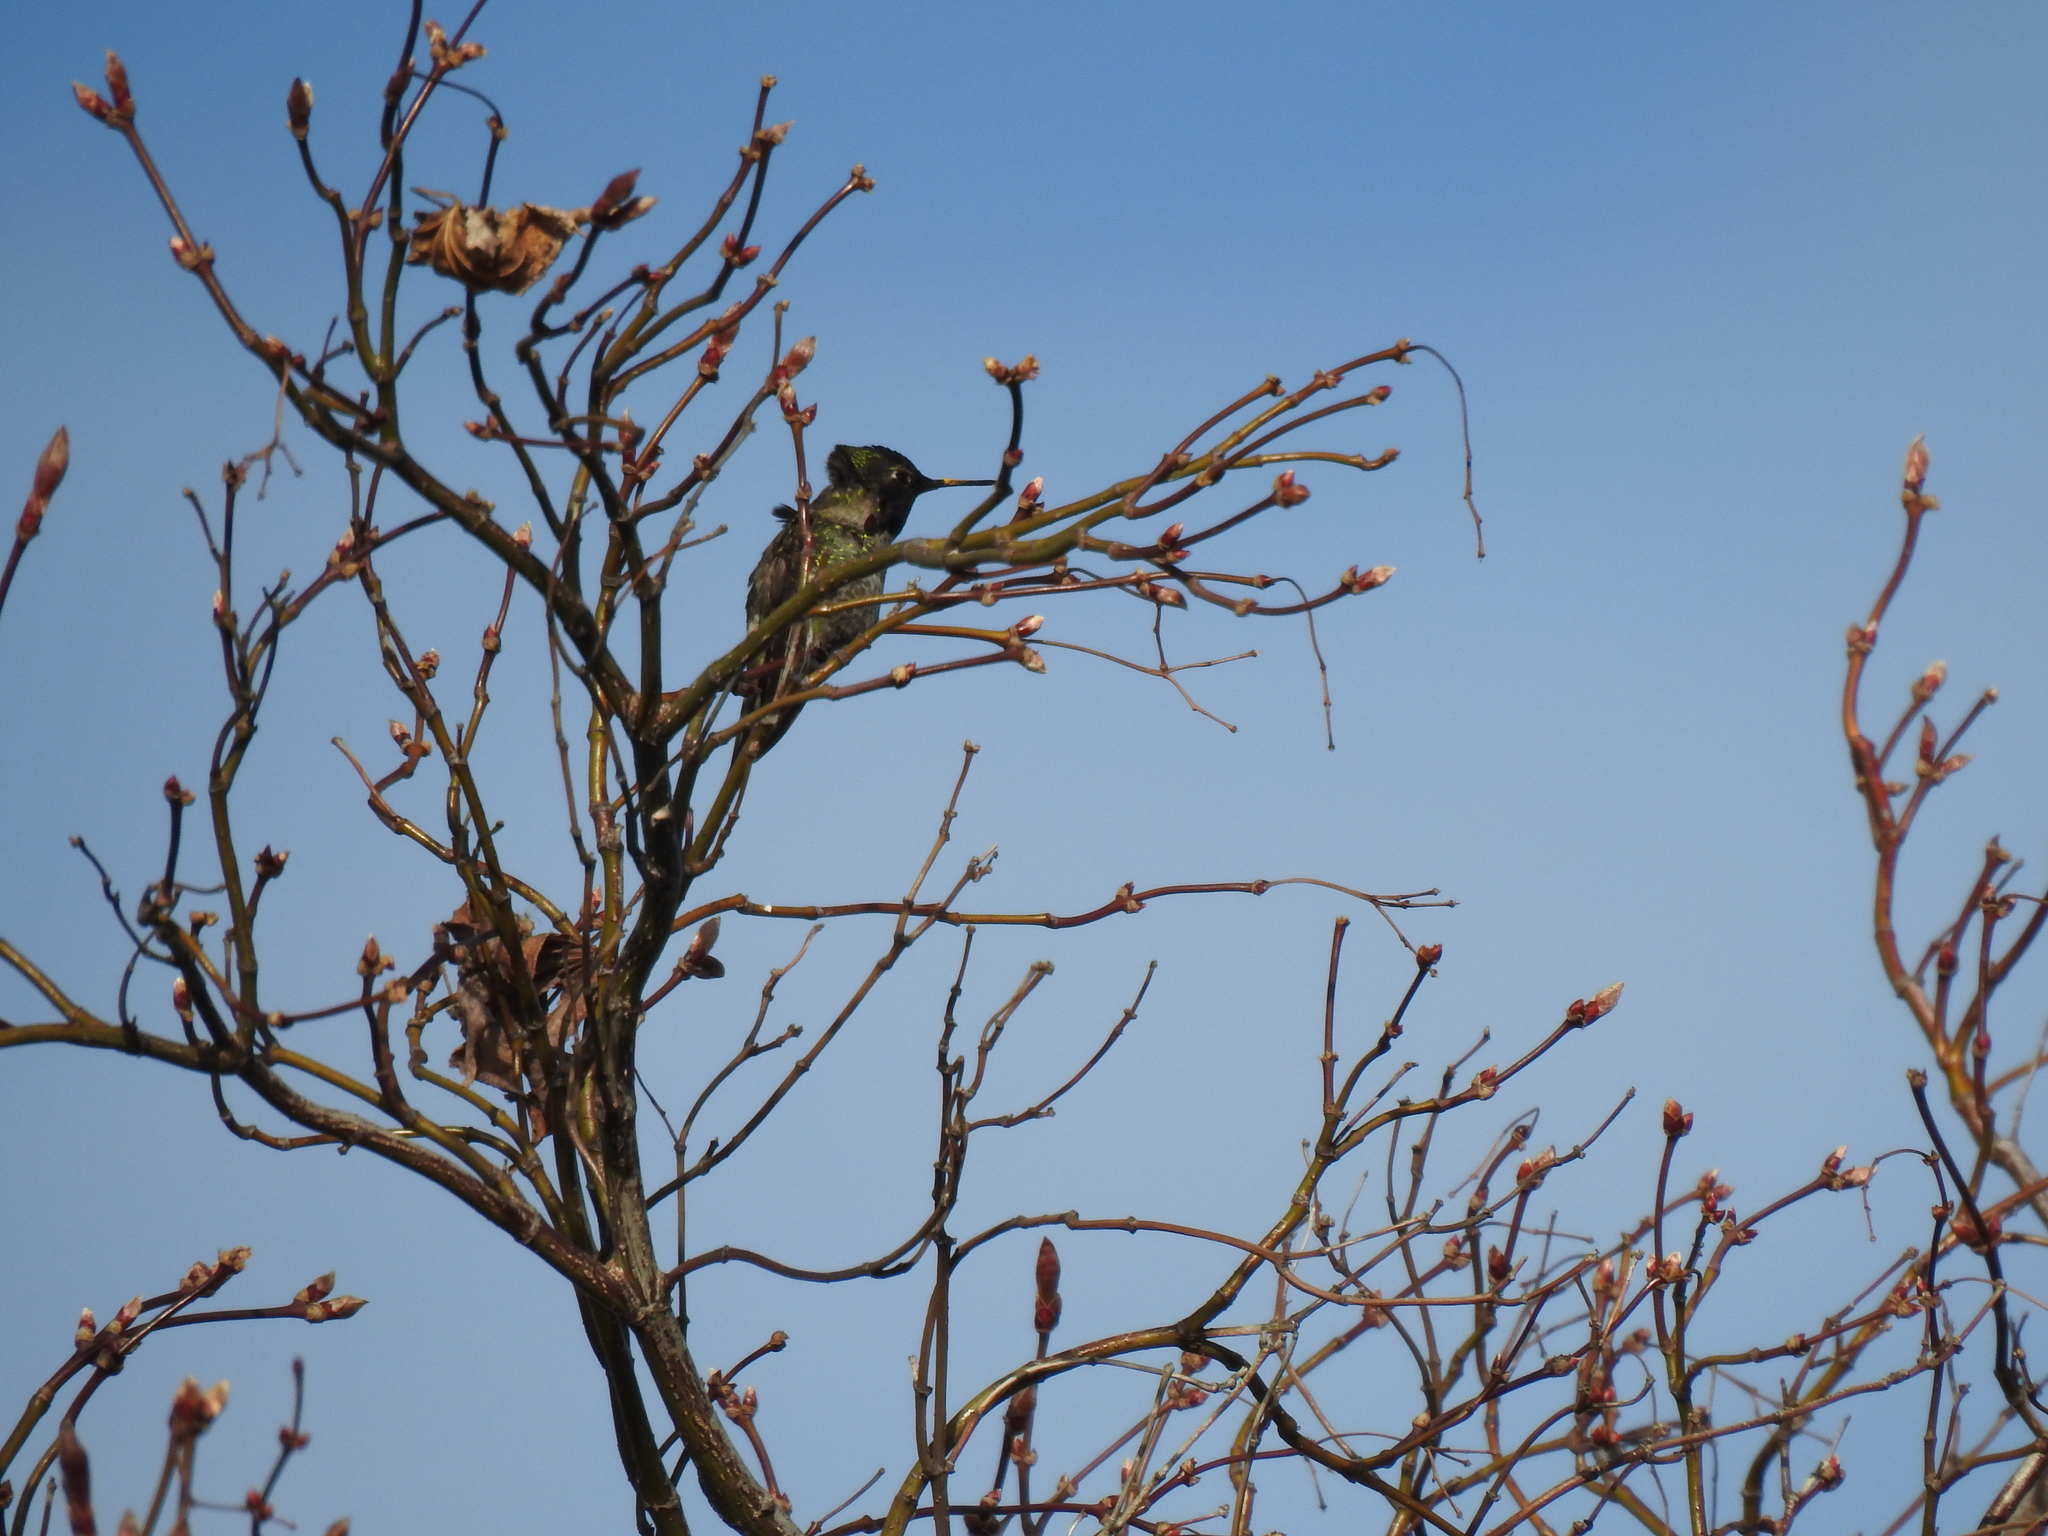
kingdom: Animalia
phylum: Chordata
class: Aves
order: Apodiformes
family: Trochilidae
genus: Calypte
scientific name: Calypte anna
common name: Anna's hummingbird
